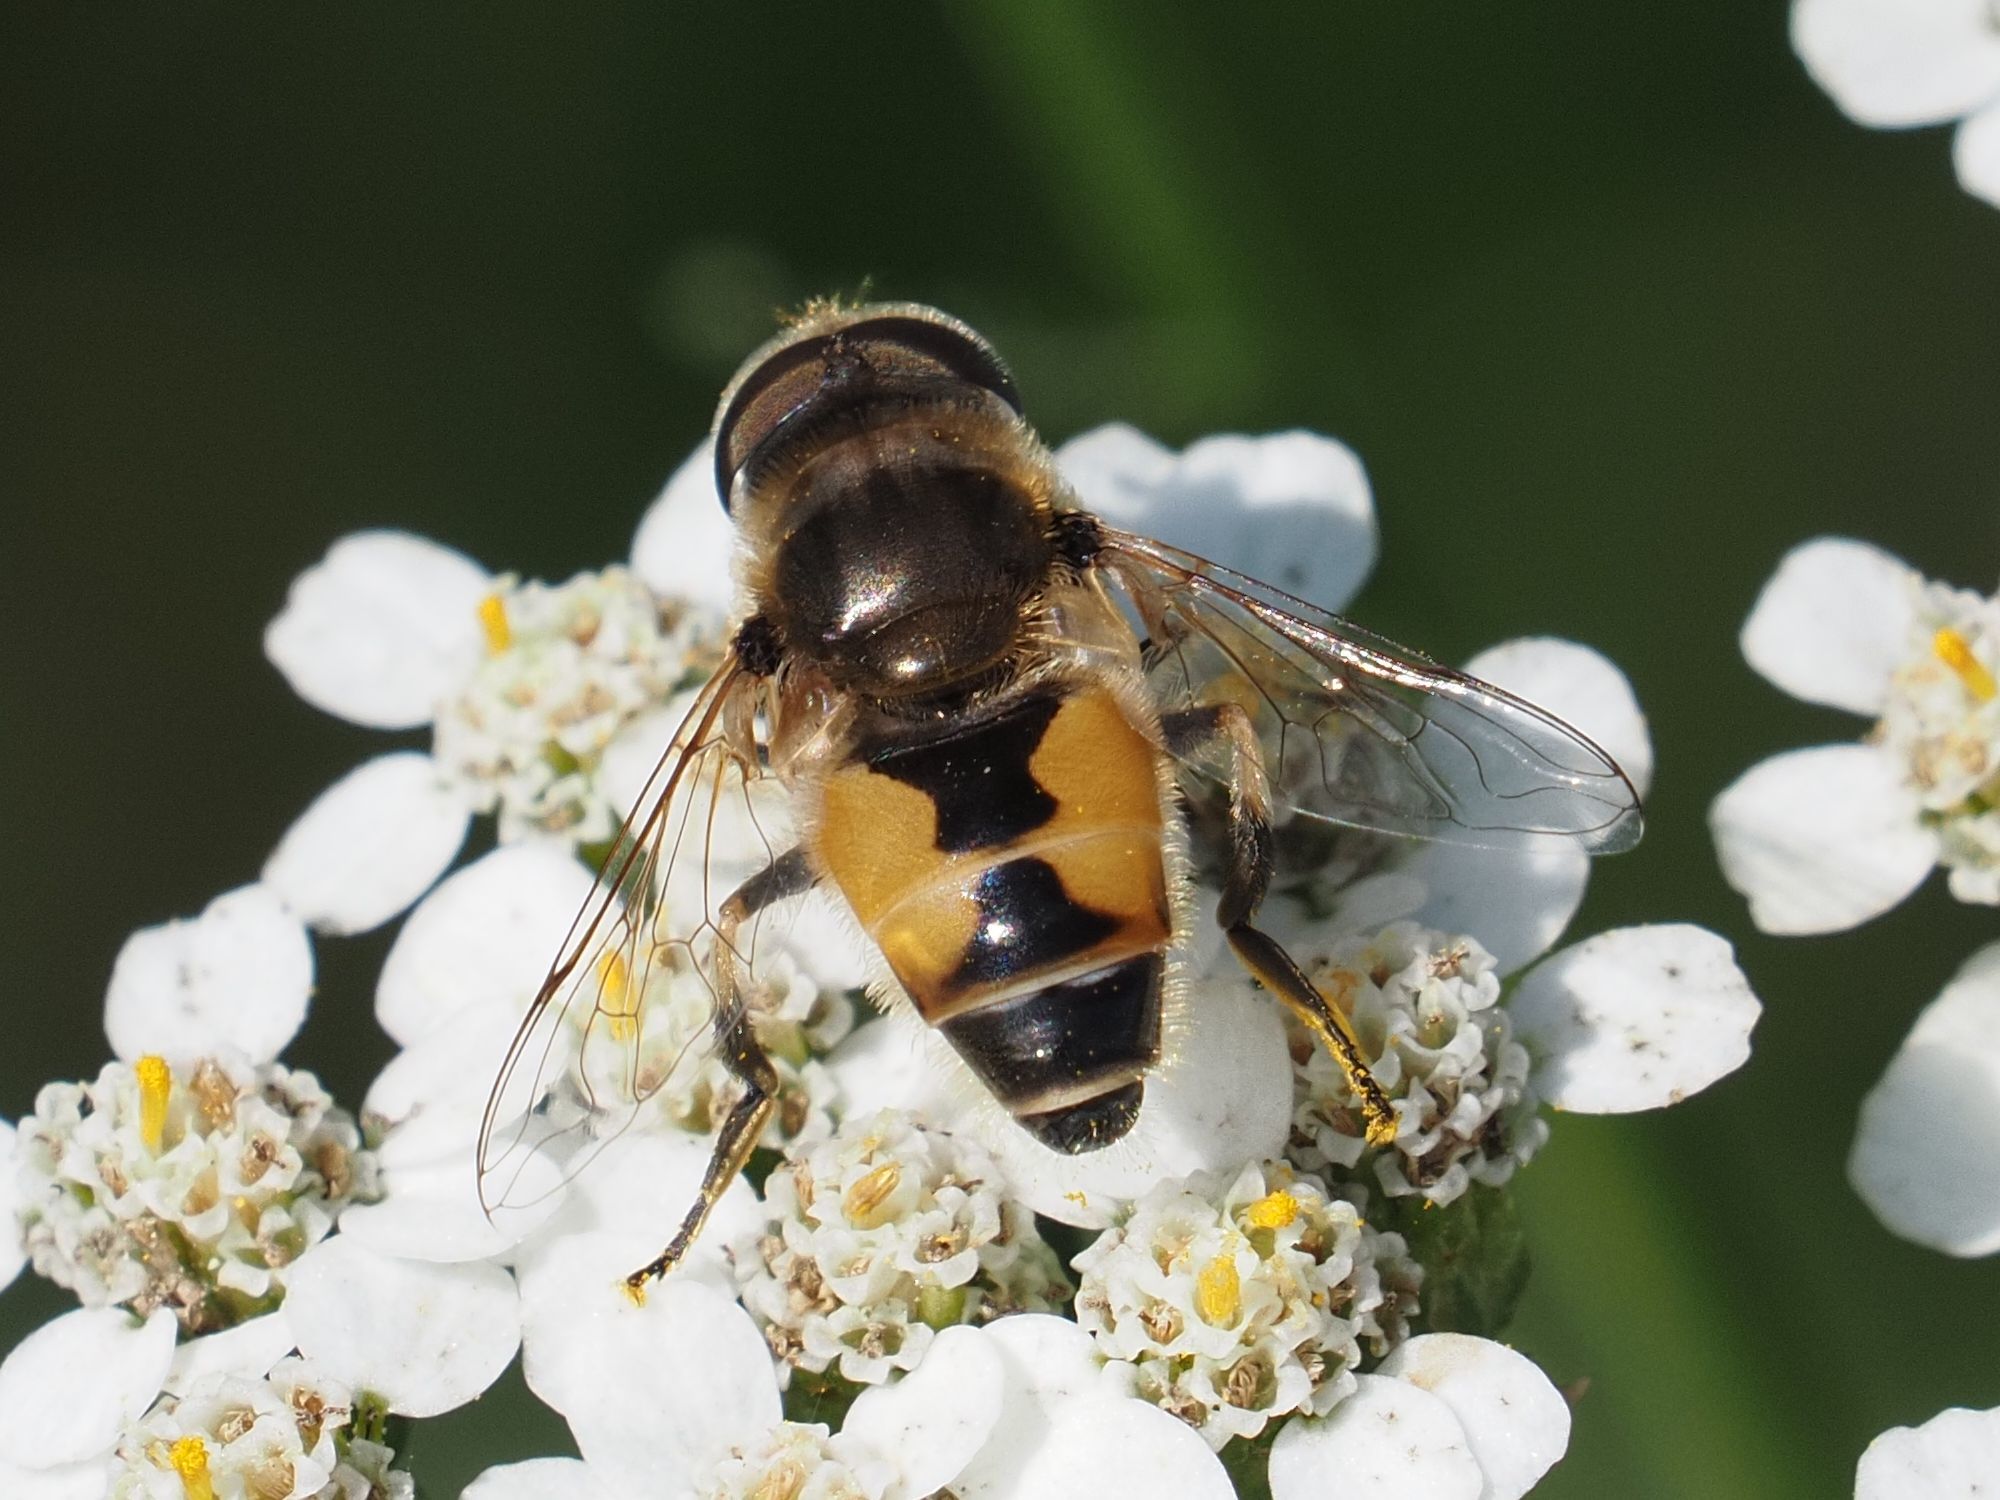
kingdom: Animalia
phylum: Arthropoda
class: Insecta
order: Diptera
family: Syrphidae
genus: Eristalis
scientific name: Eristalis arbustorum
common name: Hover fly
